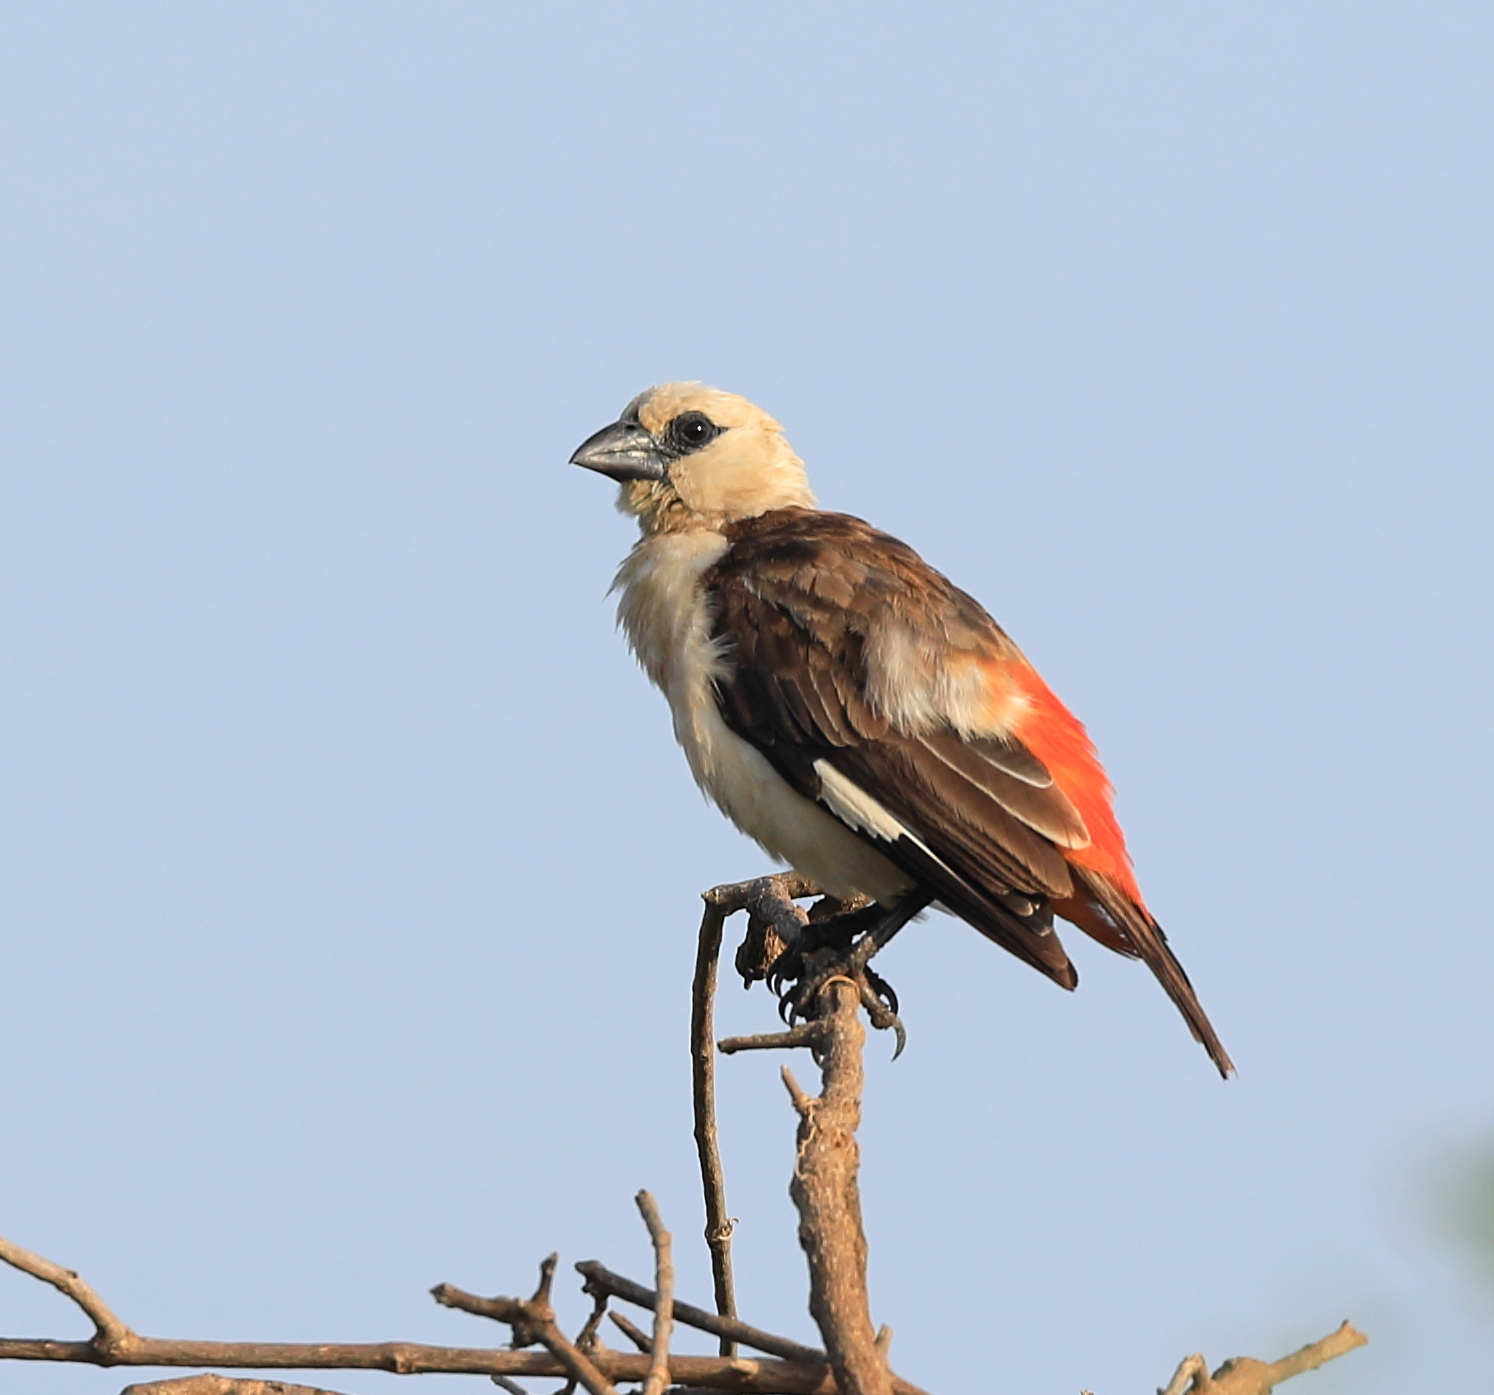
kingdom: Animalia
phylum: Chordata
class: Aves
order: Passeriformes
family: Ploceidae
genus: Dinemellia
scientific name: Dinemellia dinemelli
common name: White-headed buffalo weaver
